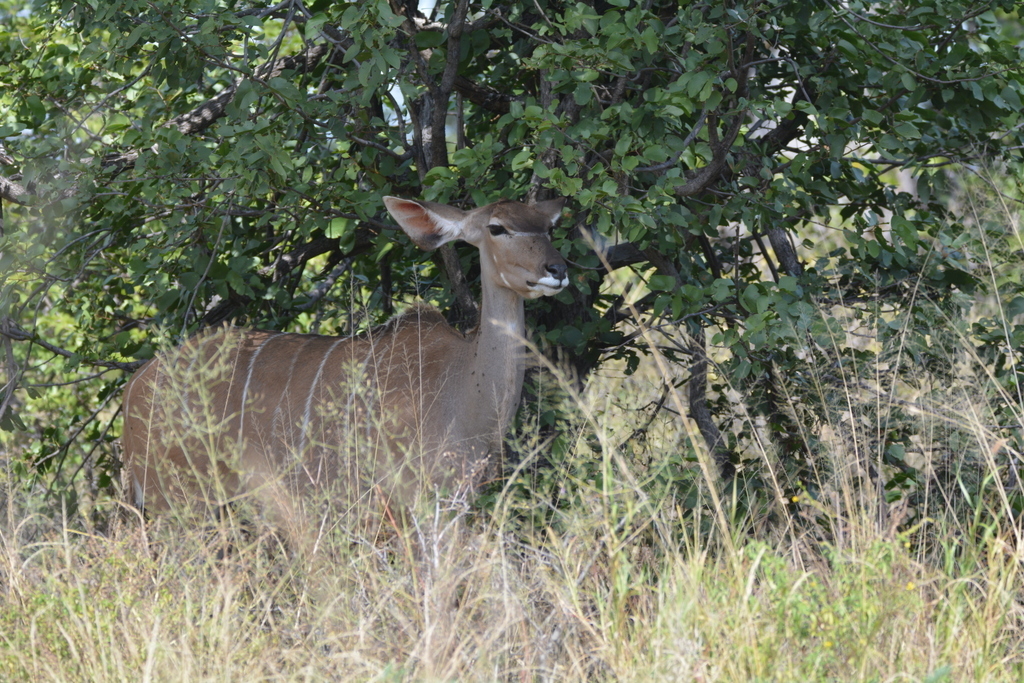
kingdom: Animalia
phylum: Chordata
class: Mammalia
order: Artiodactyla
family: Bovidae
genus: Tragelaphus
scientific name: Tragelaphus strepsiceros
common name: Greater kudu
